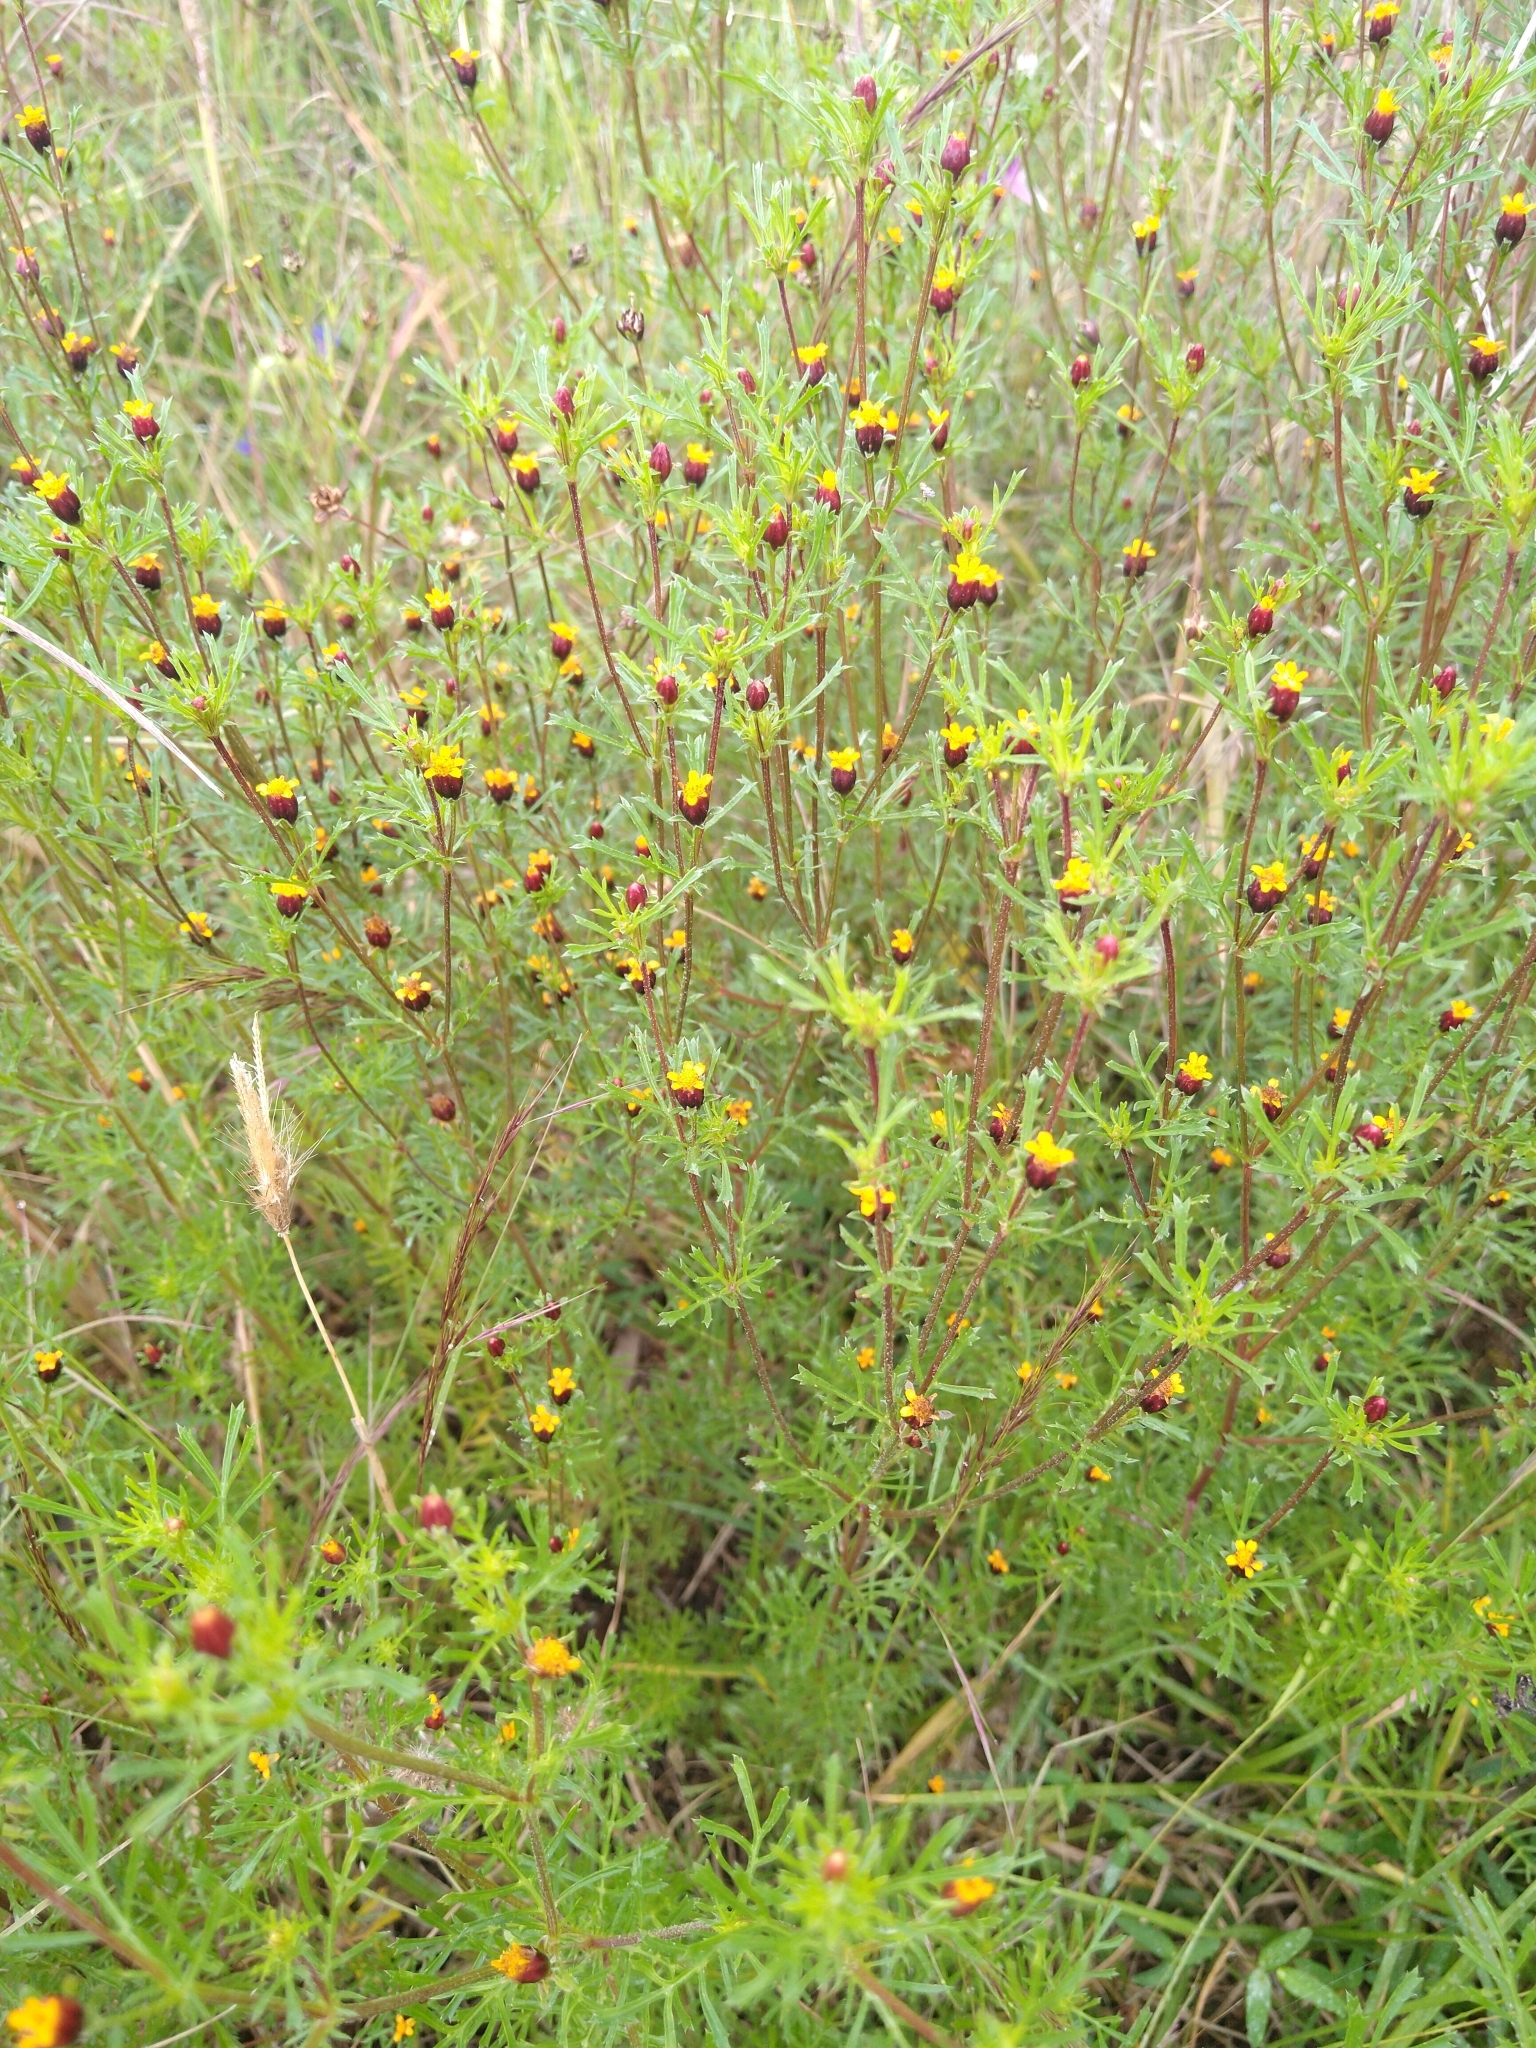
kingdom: Plantae
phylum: Tracheophyta
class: Magnoliopsida
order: Asterales
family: Asteraceae
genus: Dyssodia
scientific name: Dyssodia papposa
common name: Dogweed
